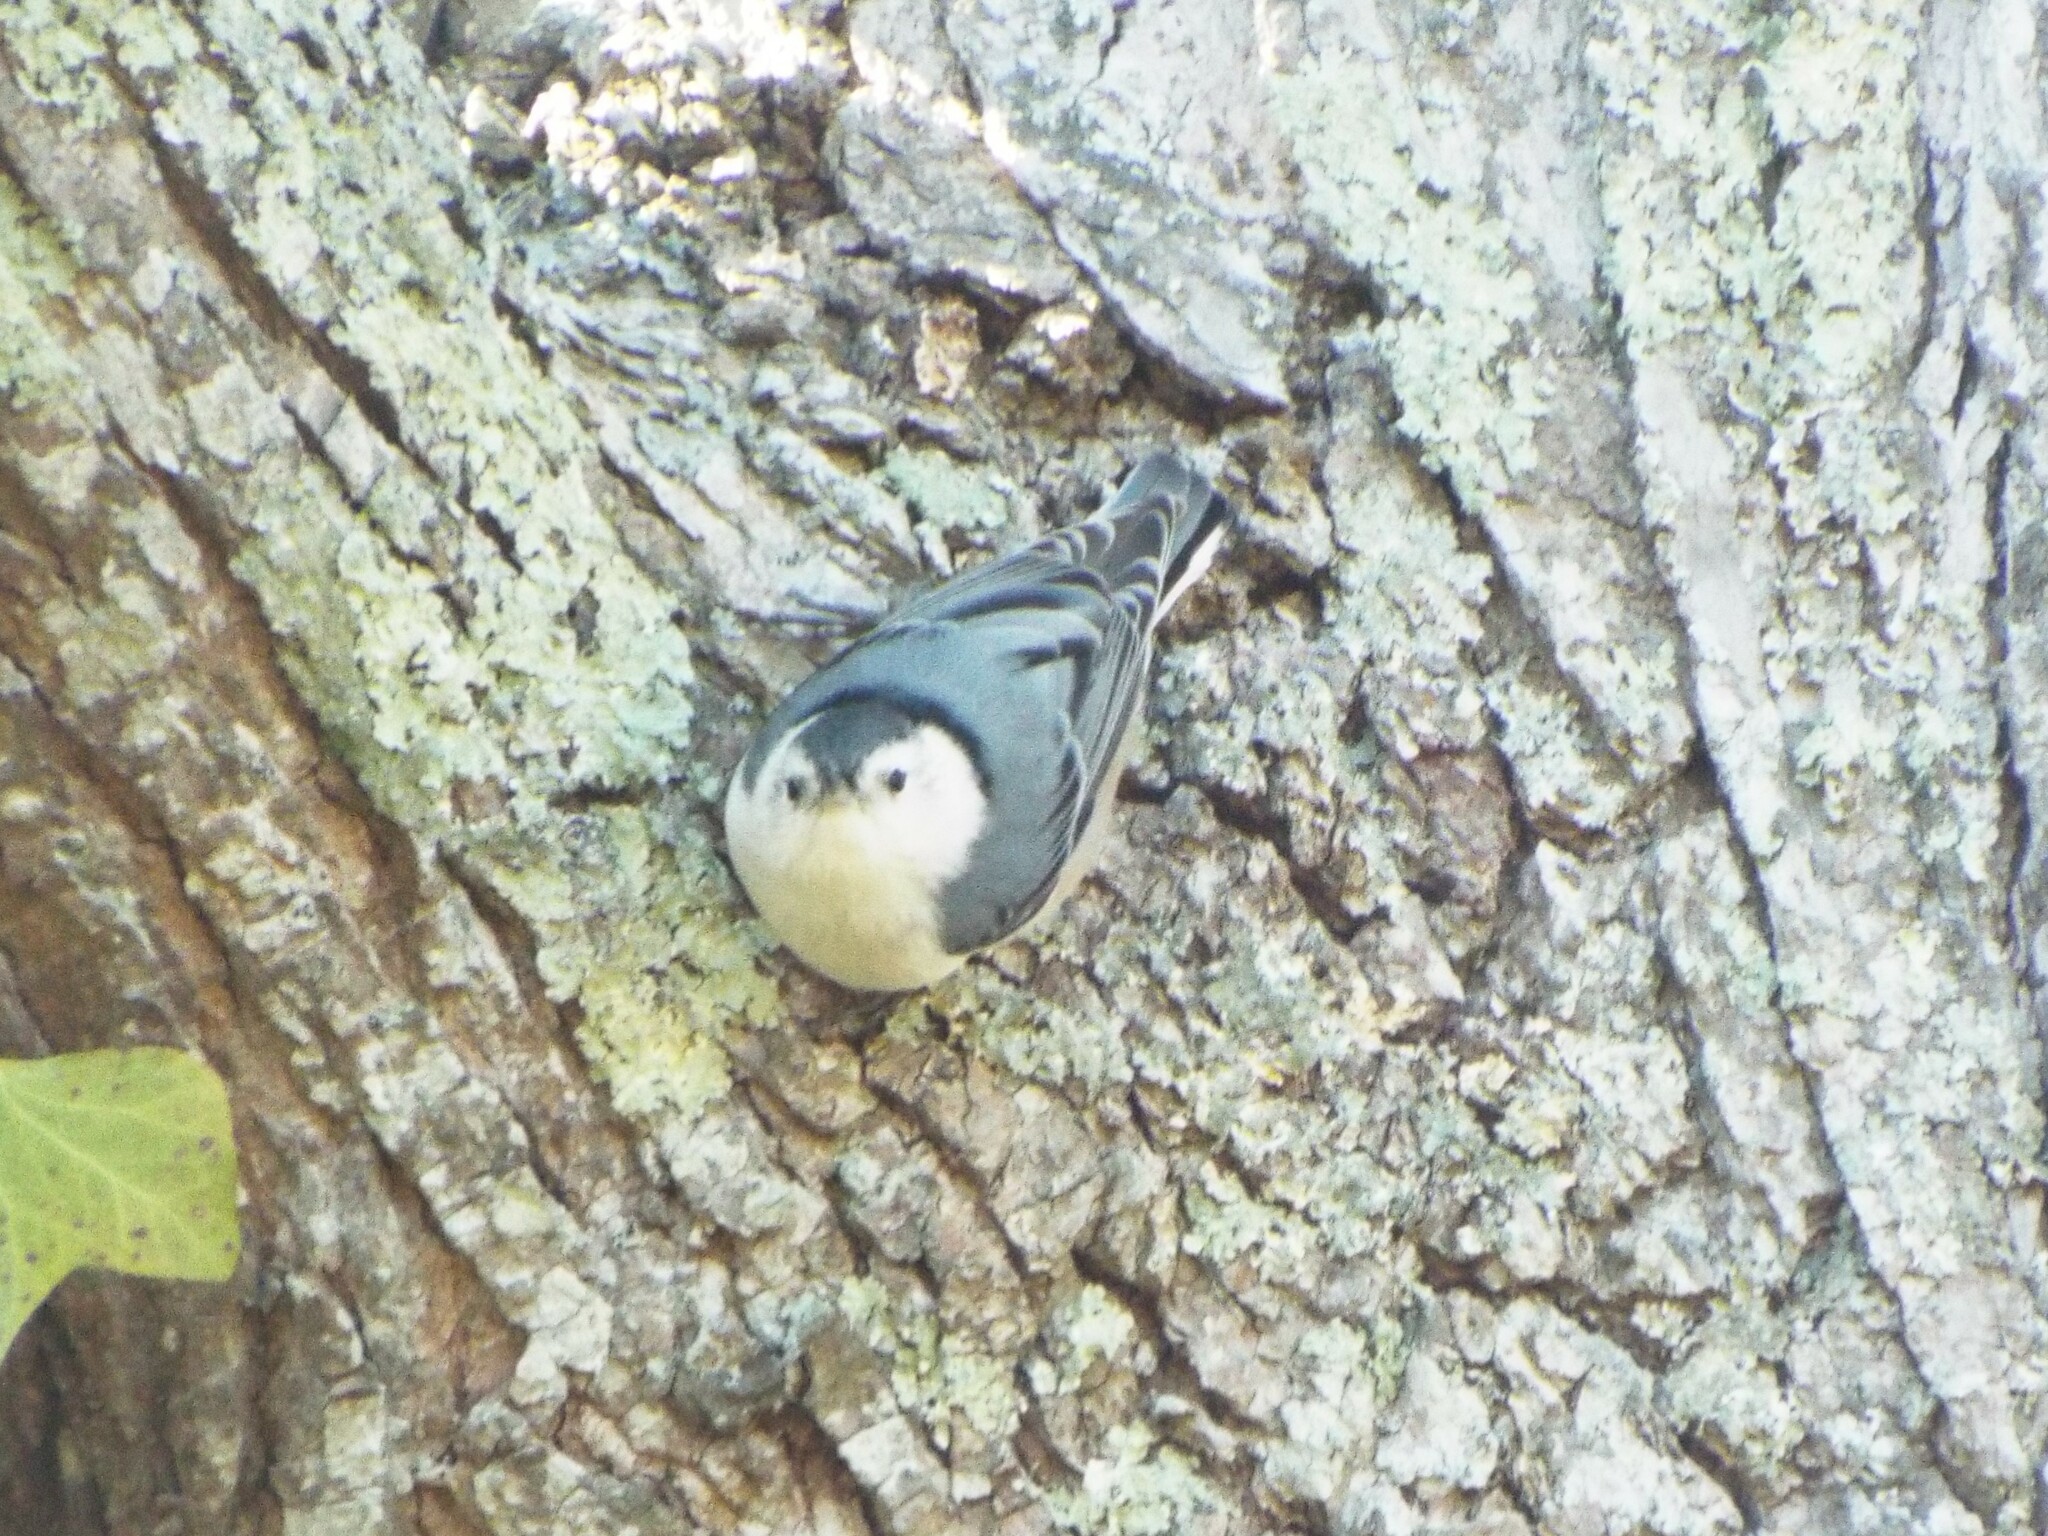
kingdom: Animalia
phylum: Chordata
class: Aves
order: Passeriformes
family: Sittidae
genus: Sitta
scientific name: Sitta carolinensis
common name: White-breasted nuthatch
